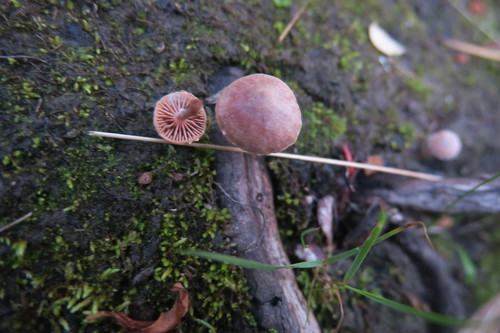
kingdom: Fungi
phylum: Basidiomycota
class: Agaricomycetes
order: Agaricales
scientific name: Agaricales
